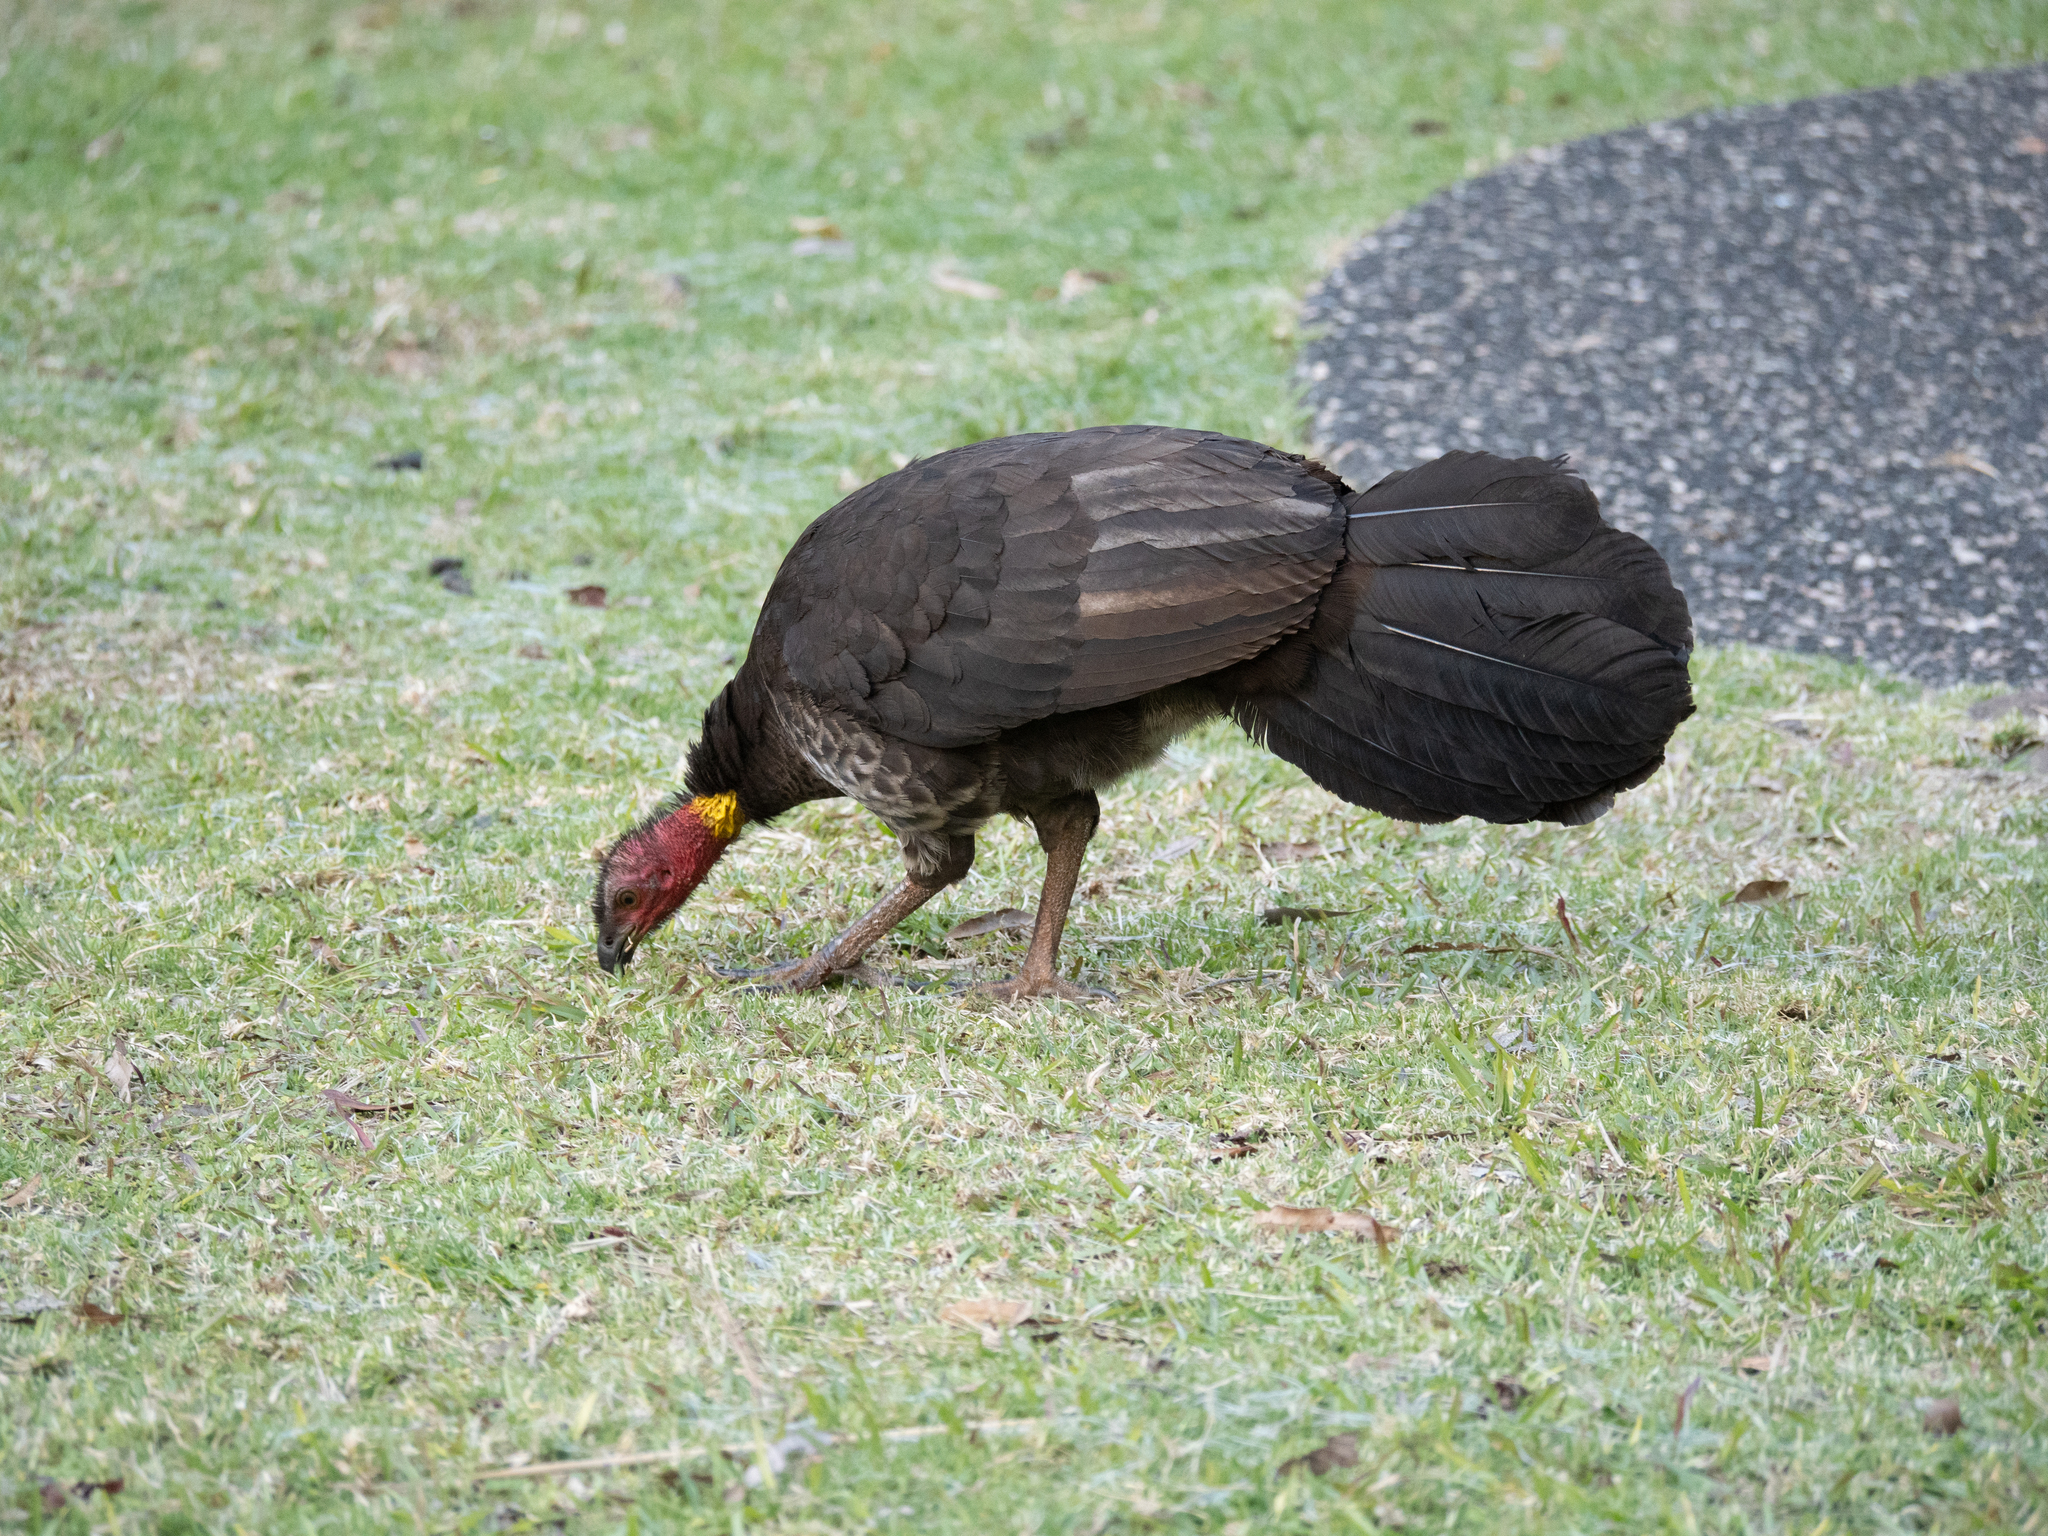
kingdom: Animalia
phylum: Chordata
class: Aves
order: Galliformes
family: Megapodiidae
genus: Alectura
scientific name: Alectura lathami
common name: Australian brushturkey
